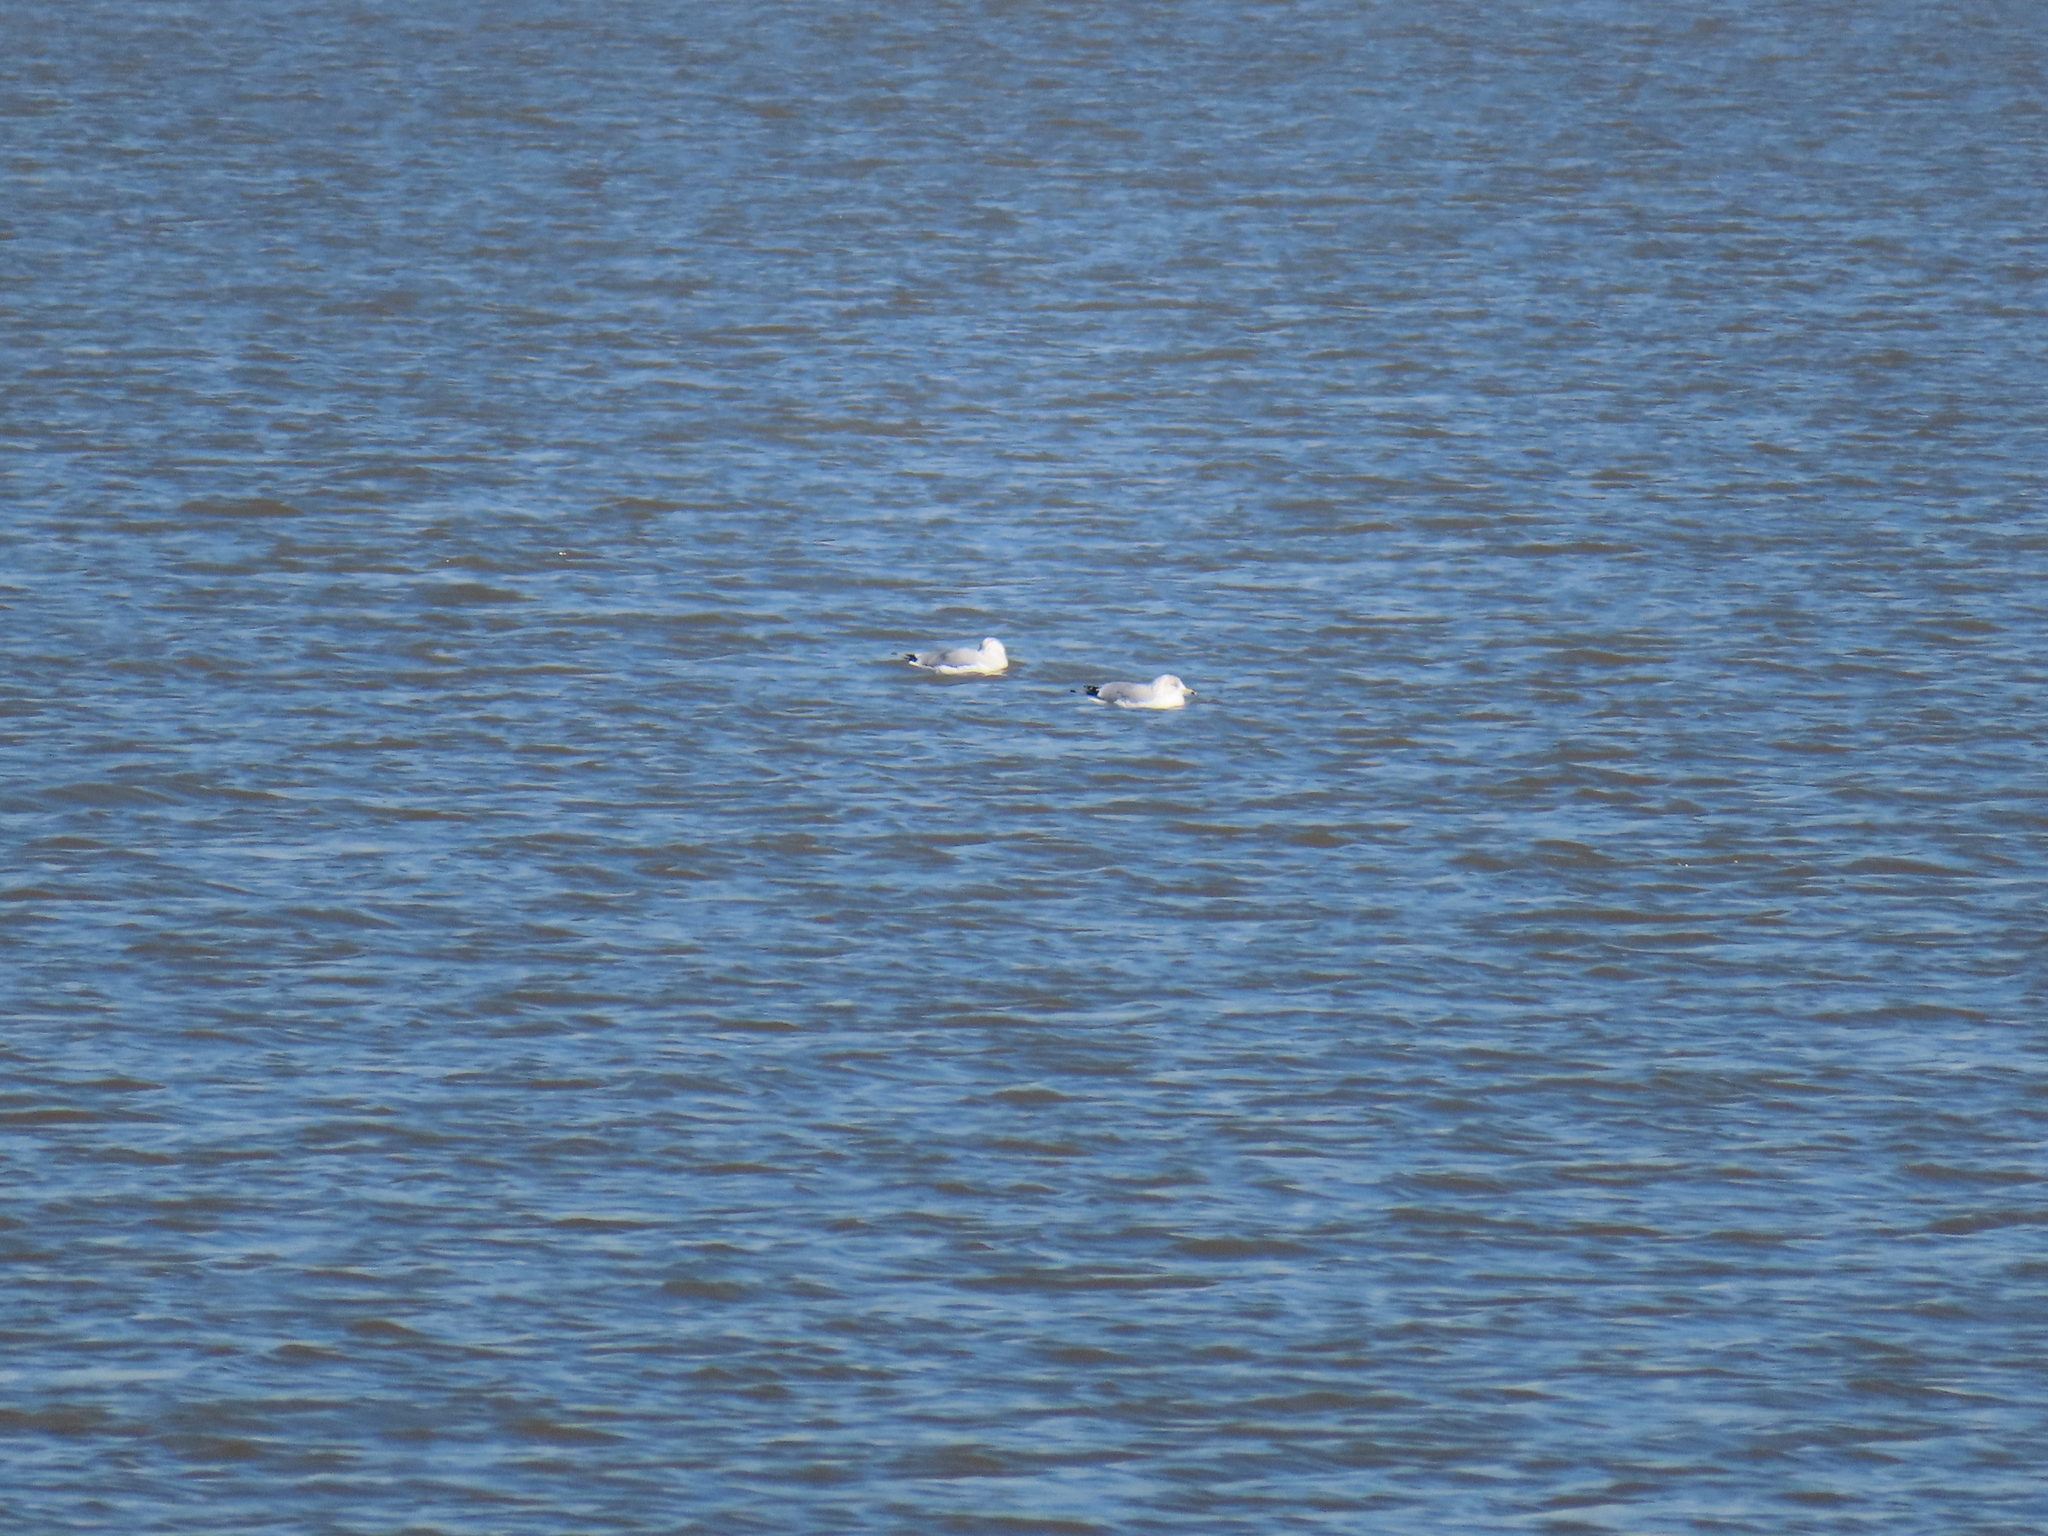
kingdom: Animalia
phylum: Chordata
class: Aves
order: Charadriiformes
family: Laridae
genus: Larus
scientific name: Larus delawarensis
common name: Ring-billed gull
